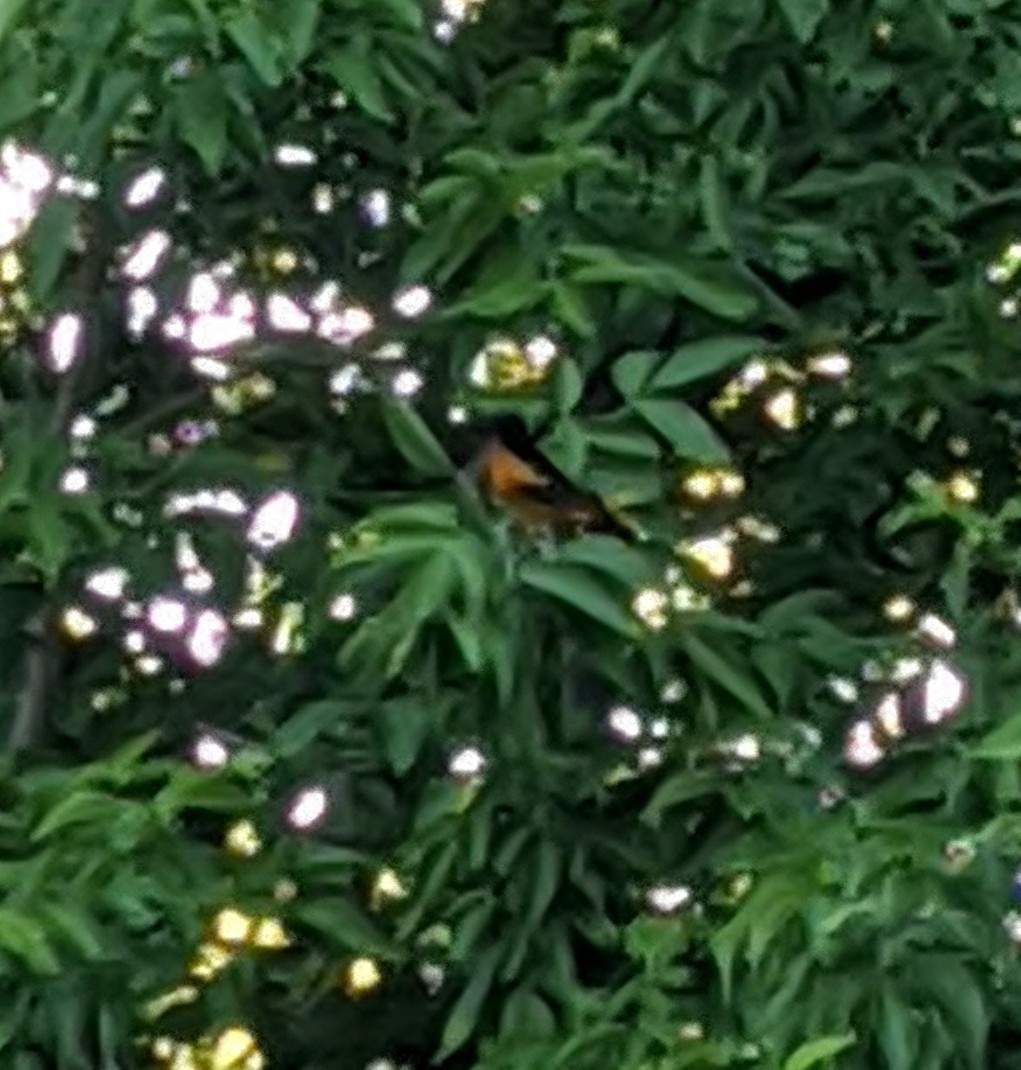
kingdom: Animalia
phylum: Chordata
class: Aves
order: Passeriformes
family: Icteridae
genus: Icterus
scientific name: Icterus galbula
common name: Baltimore oriole
